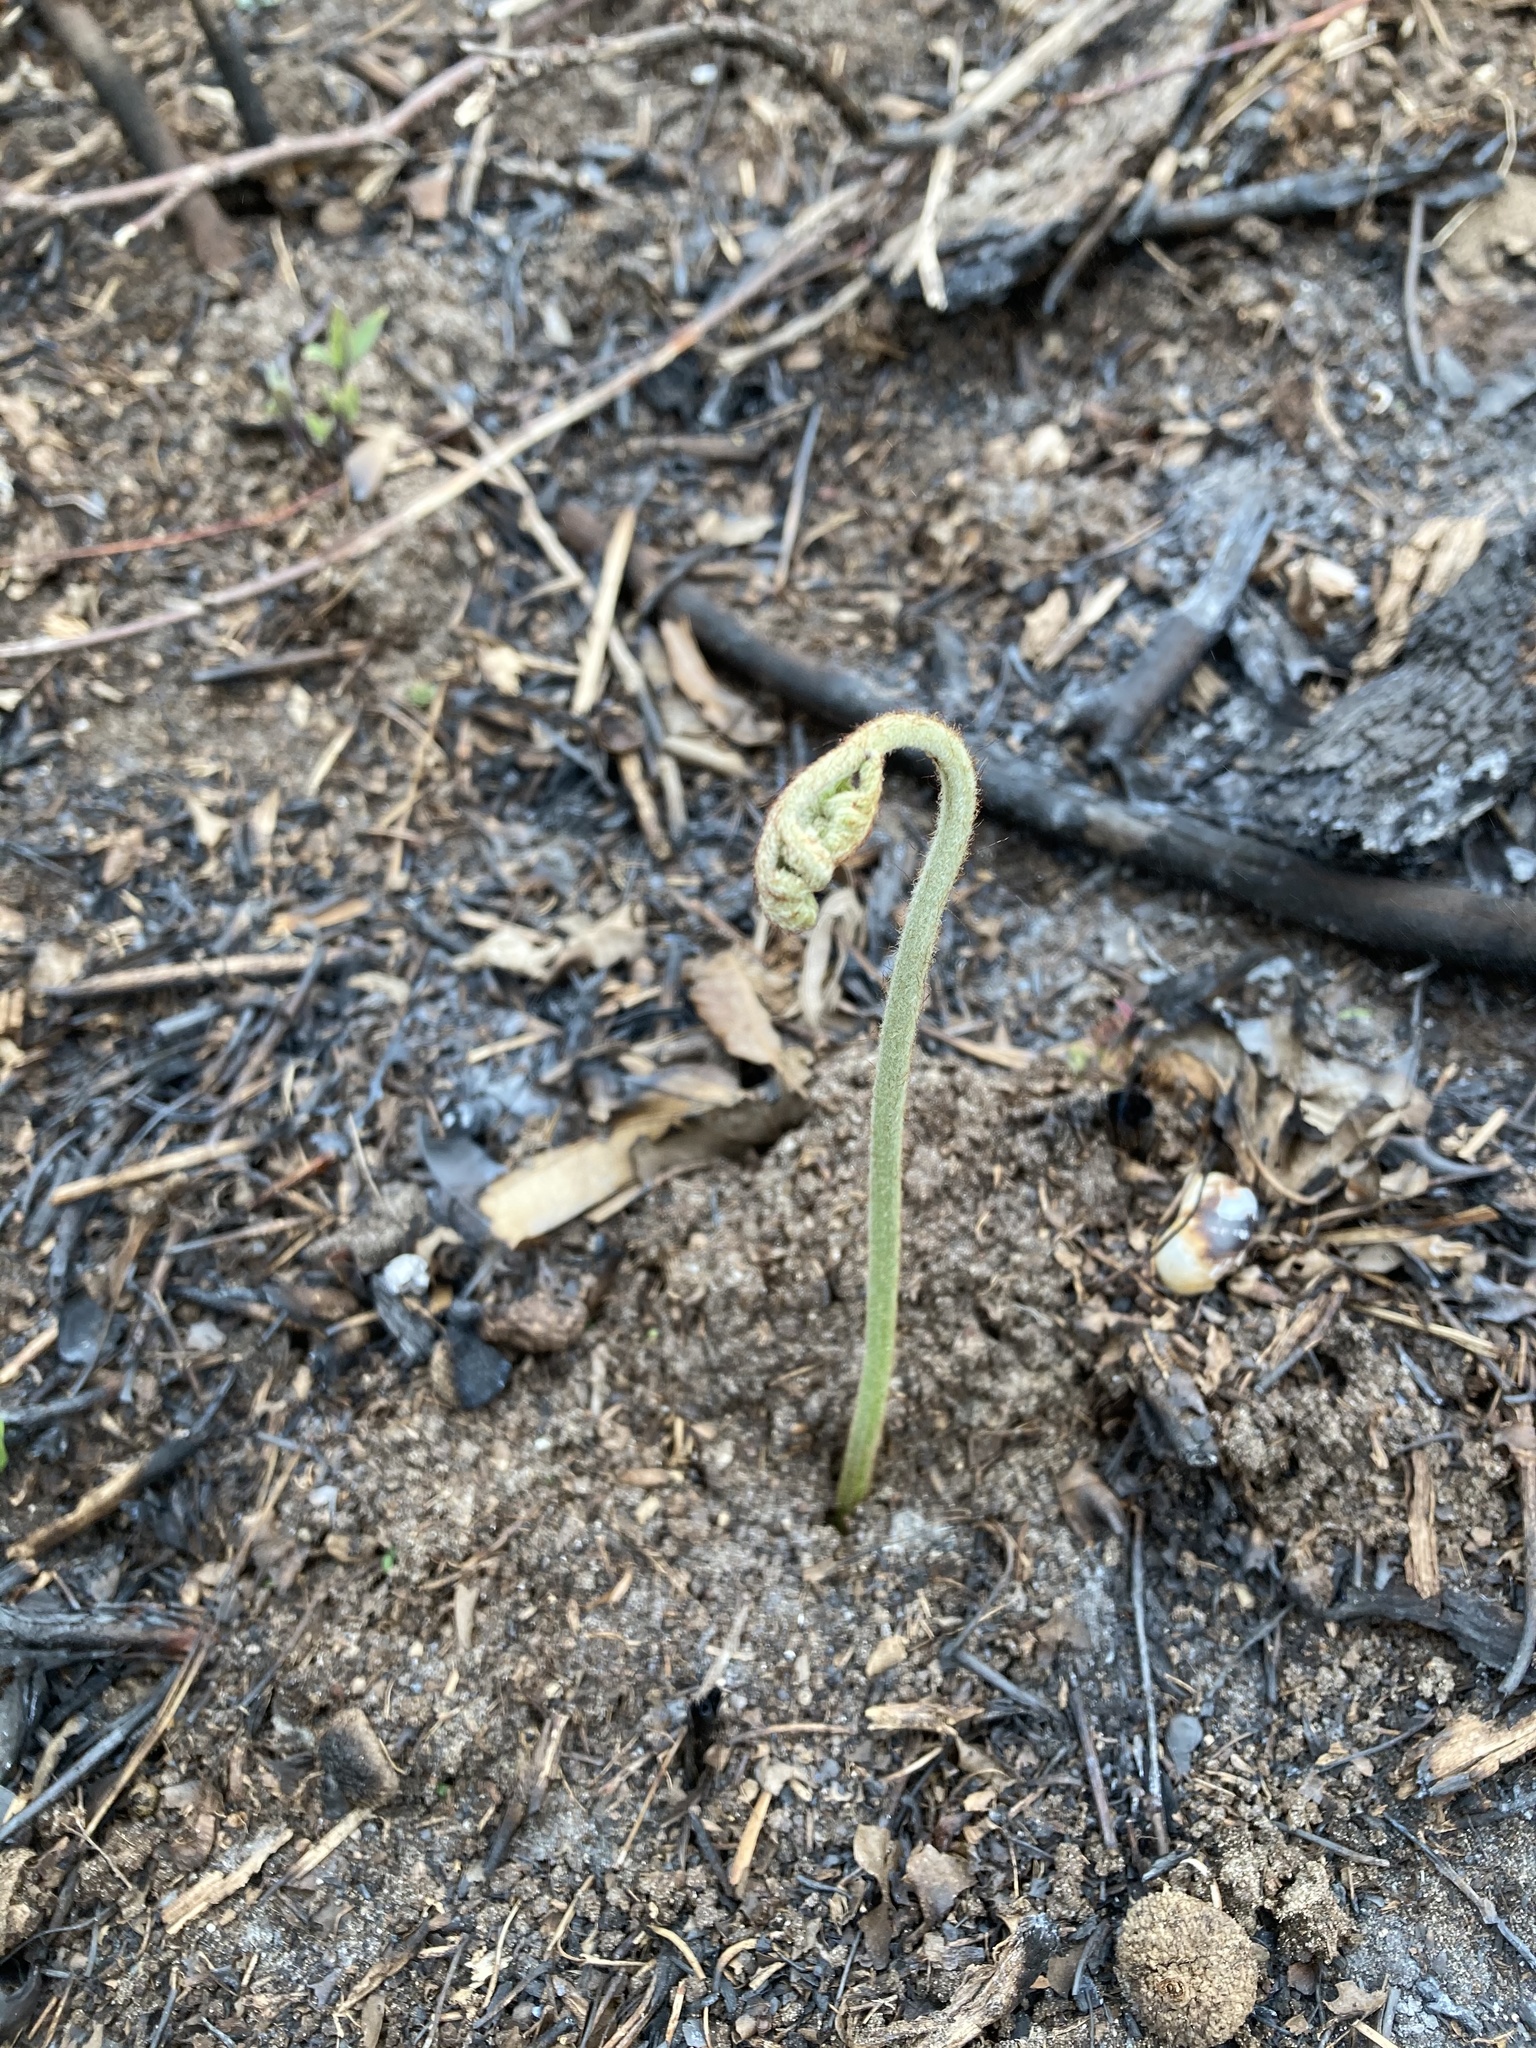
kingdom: Plantae
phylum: Tracheophyta
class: Polypodiopsida
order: Polypodiales
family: Dennstaedtiaceae
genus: Pteridium
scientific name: Pteridium aquilinum
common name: Bracken
